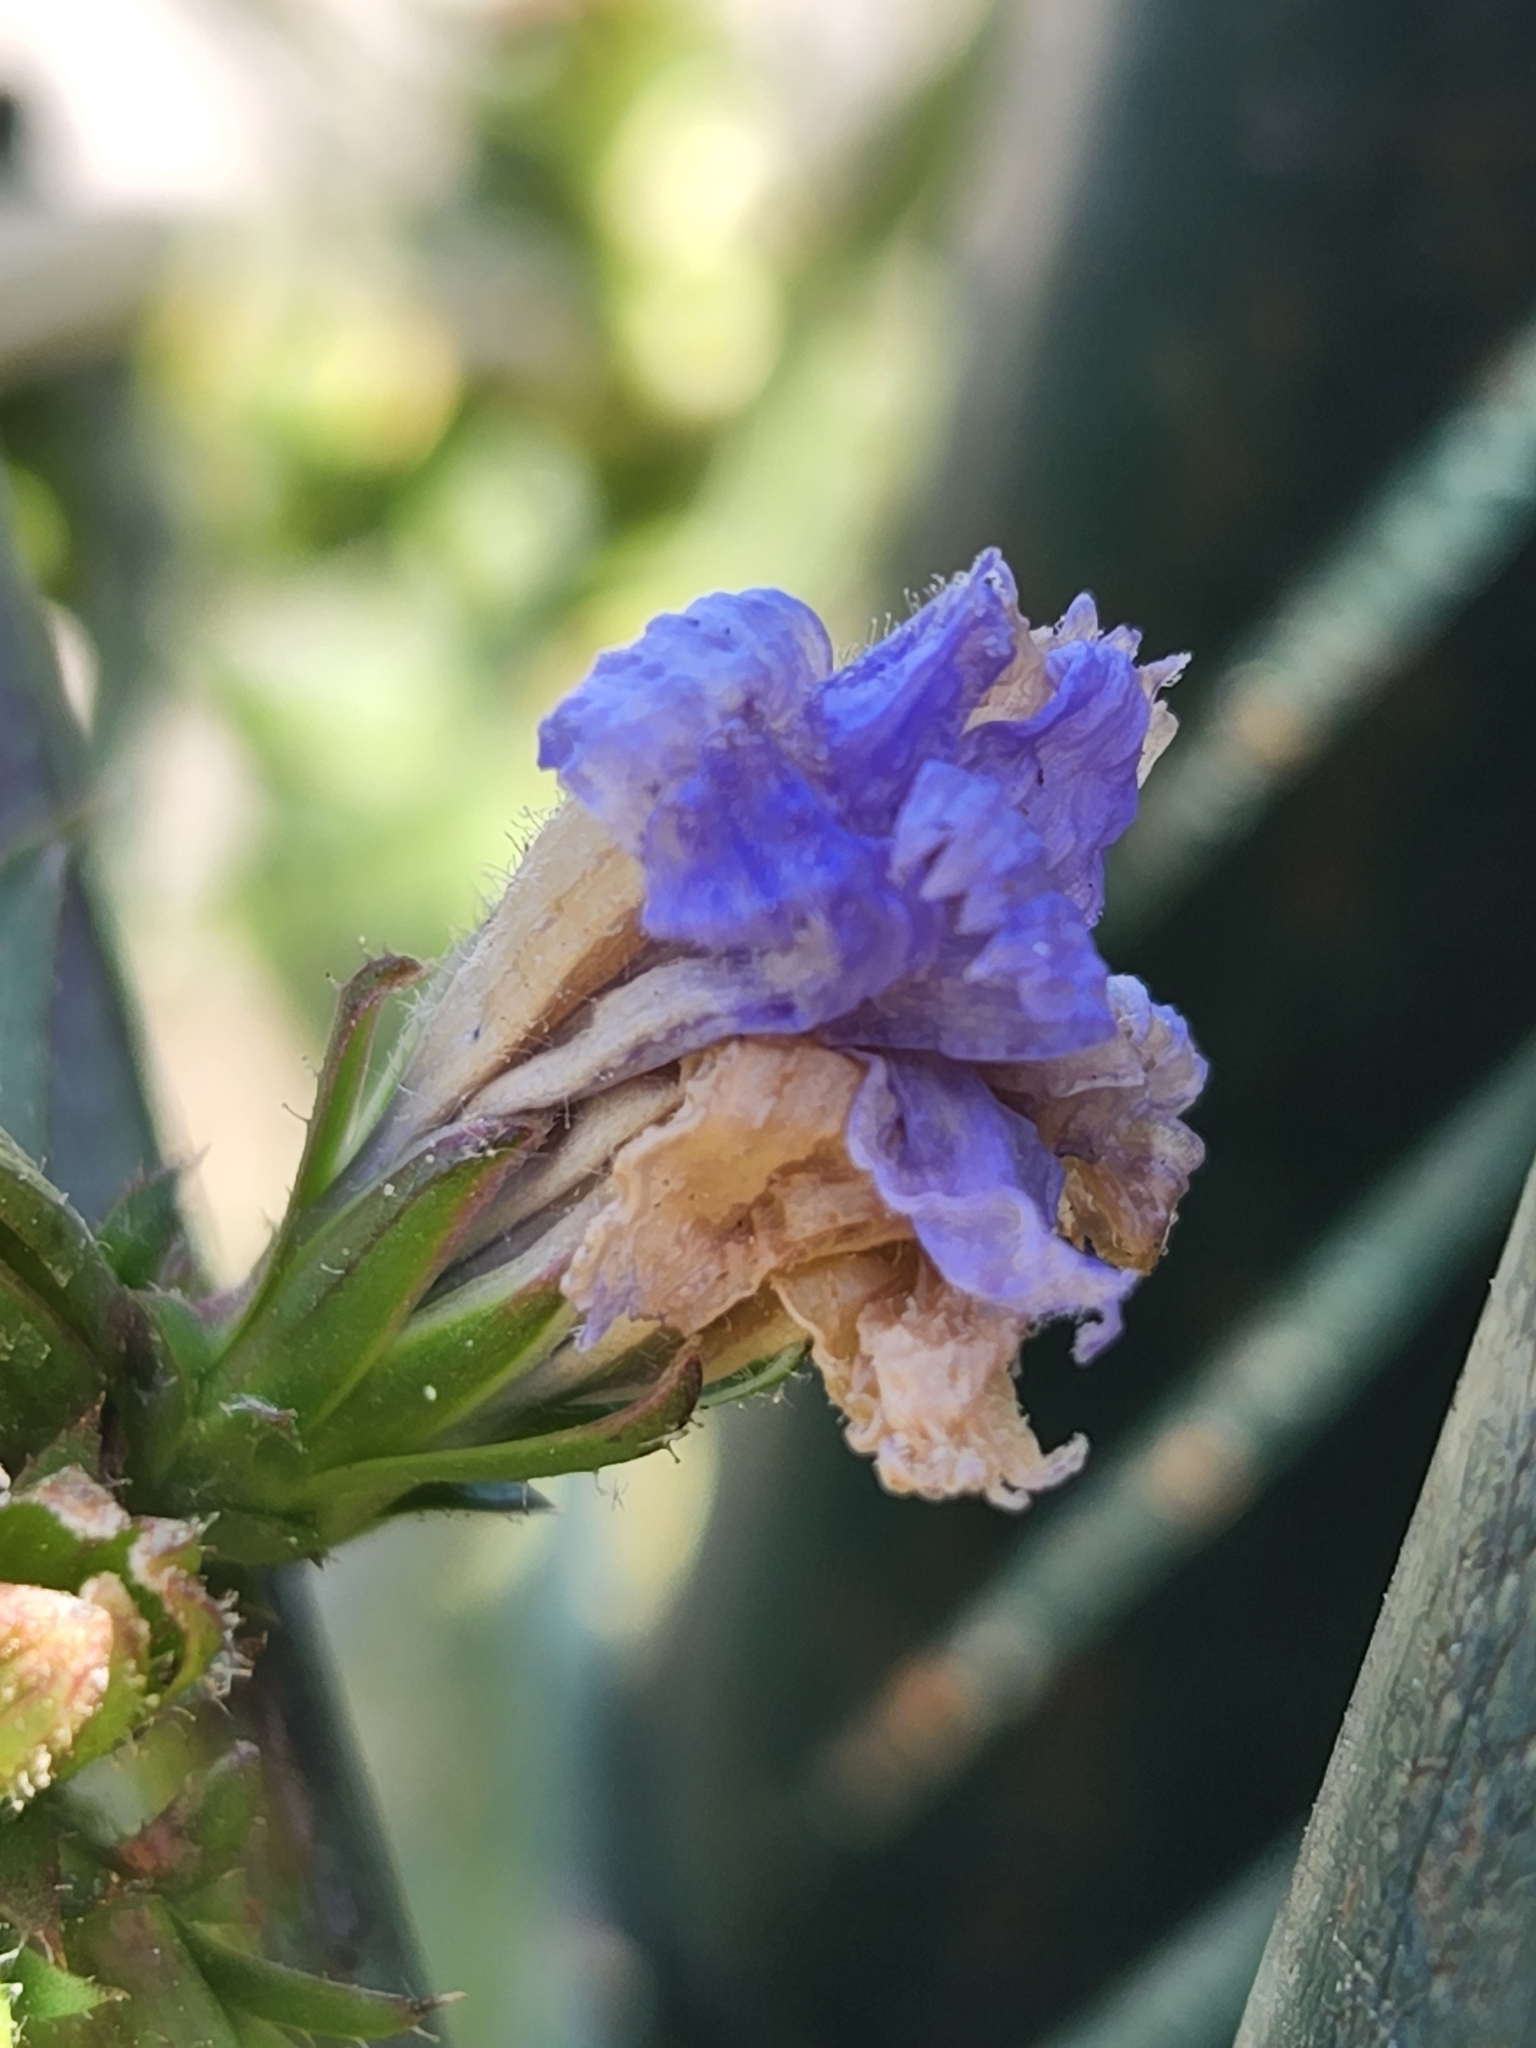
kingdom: Plantae
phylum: Tracheophyta
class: Magnoliopsida
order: Asterales
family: Asteraceae
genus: Cichorium
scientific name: Cichorium intybus
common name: Chicory
